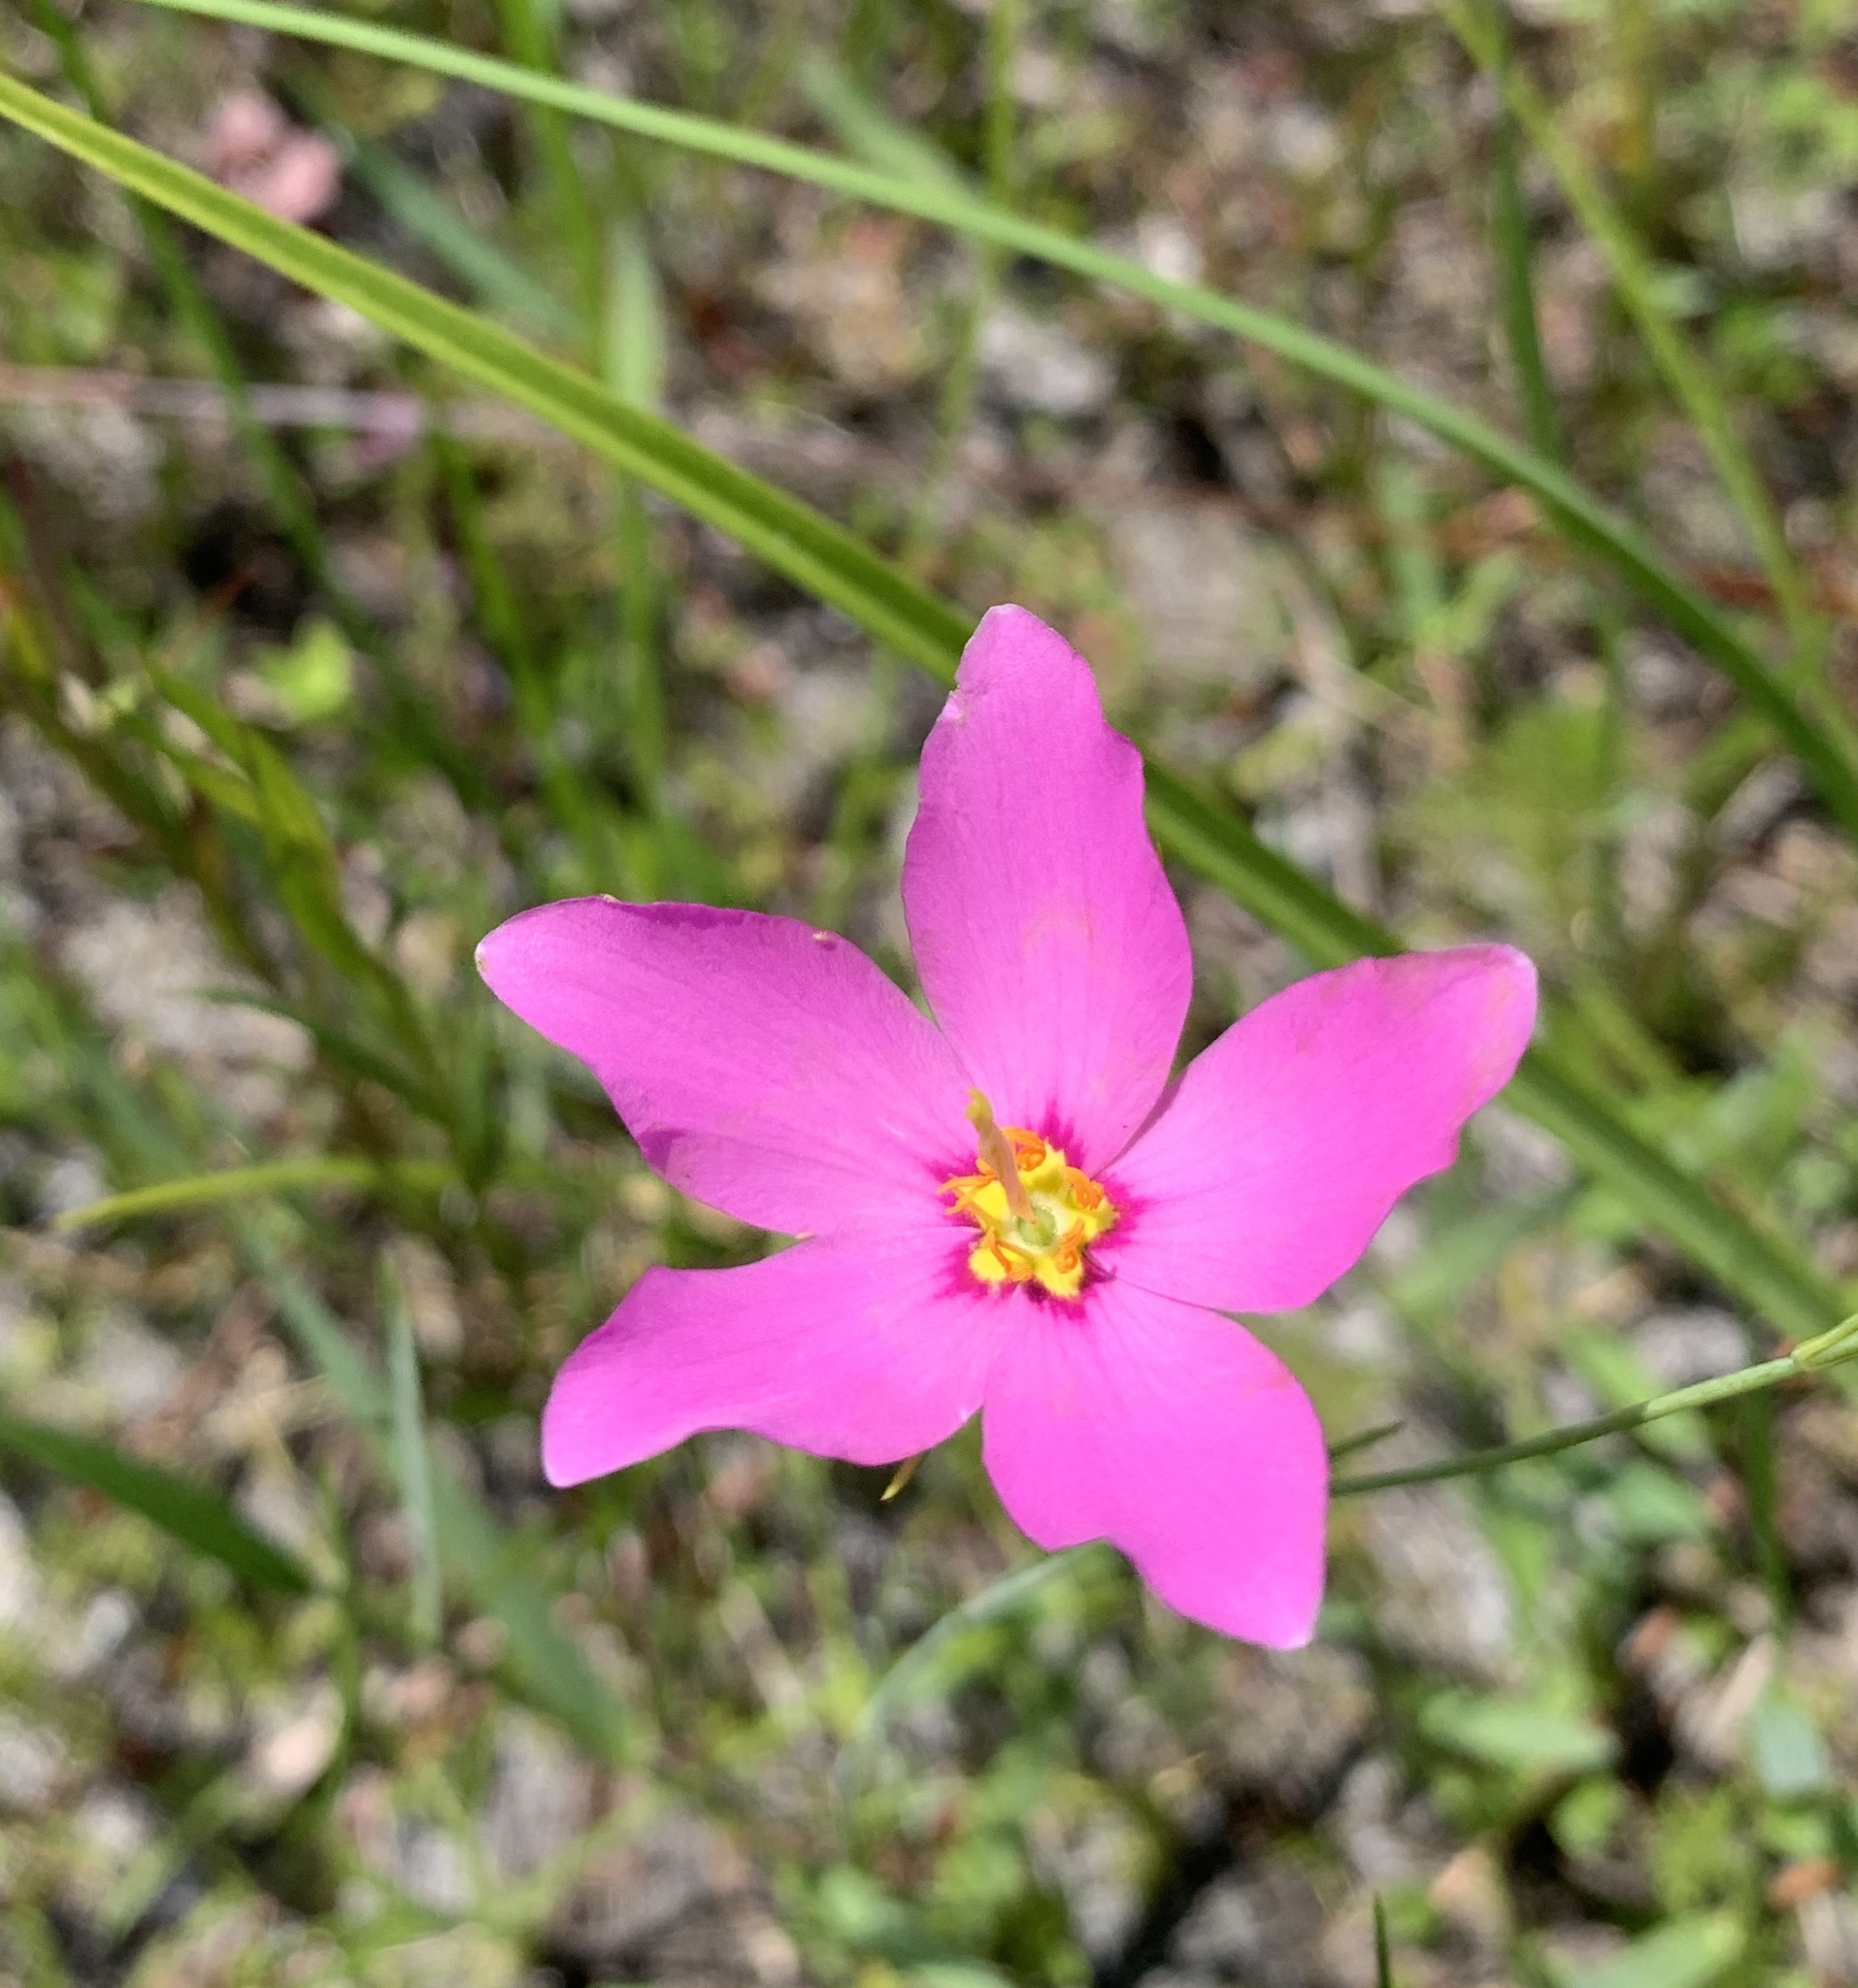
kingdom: Plantae
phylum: Tracheophyta
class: Magnoliopsida
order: Gentianales
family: Gentianaceae
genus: Sabatia
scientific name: Sabatia grandiflora
